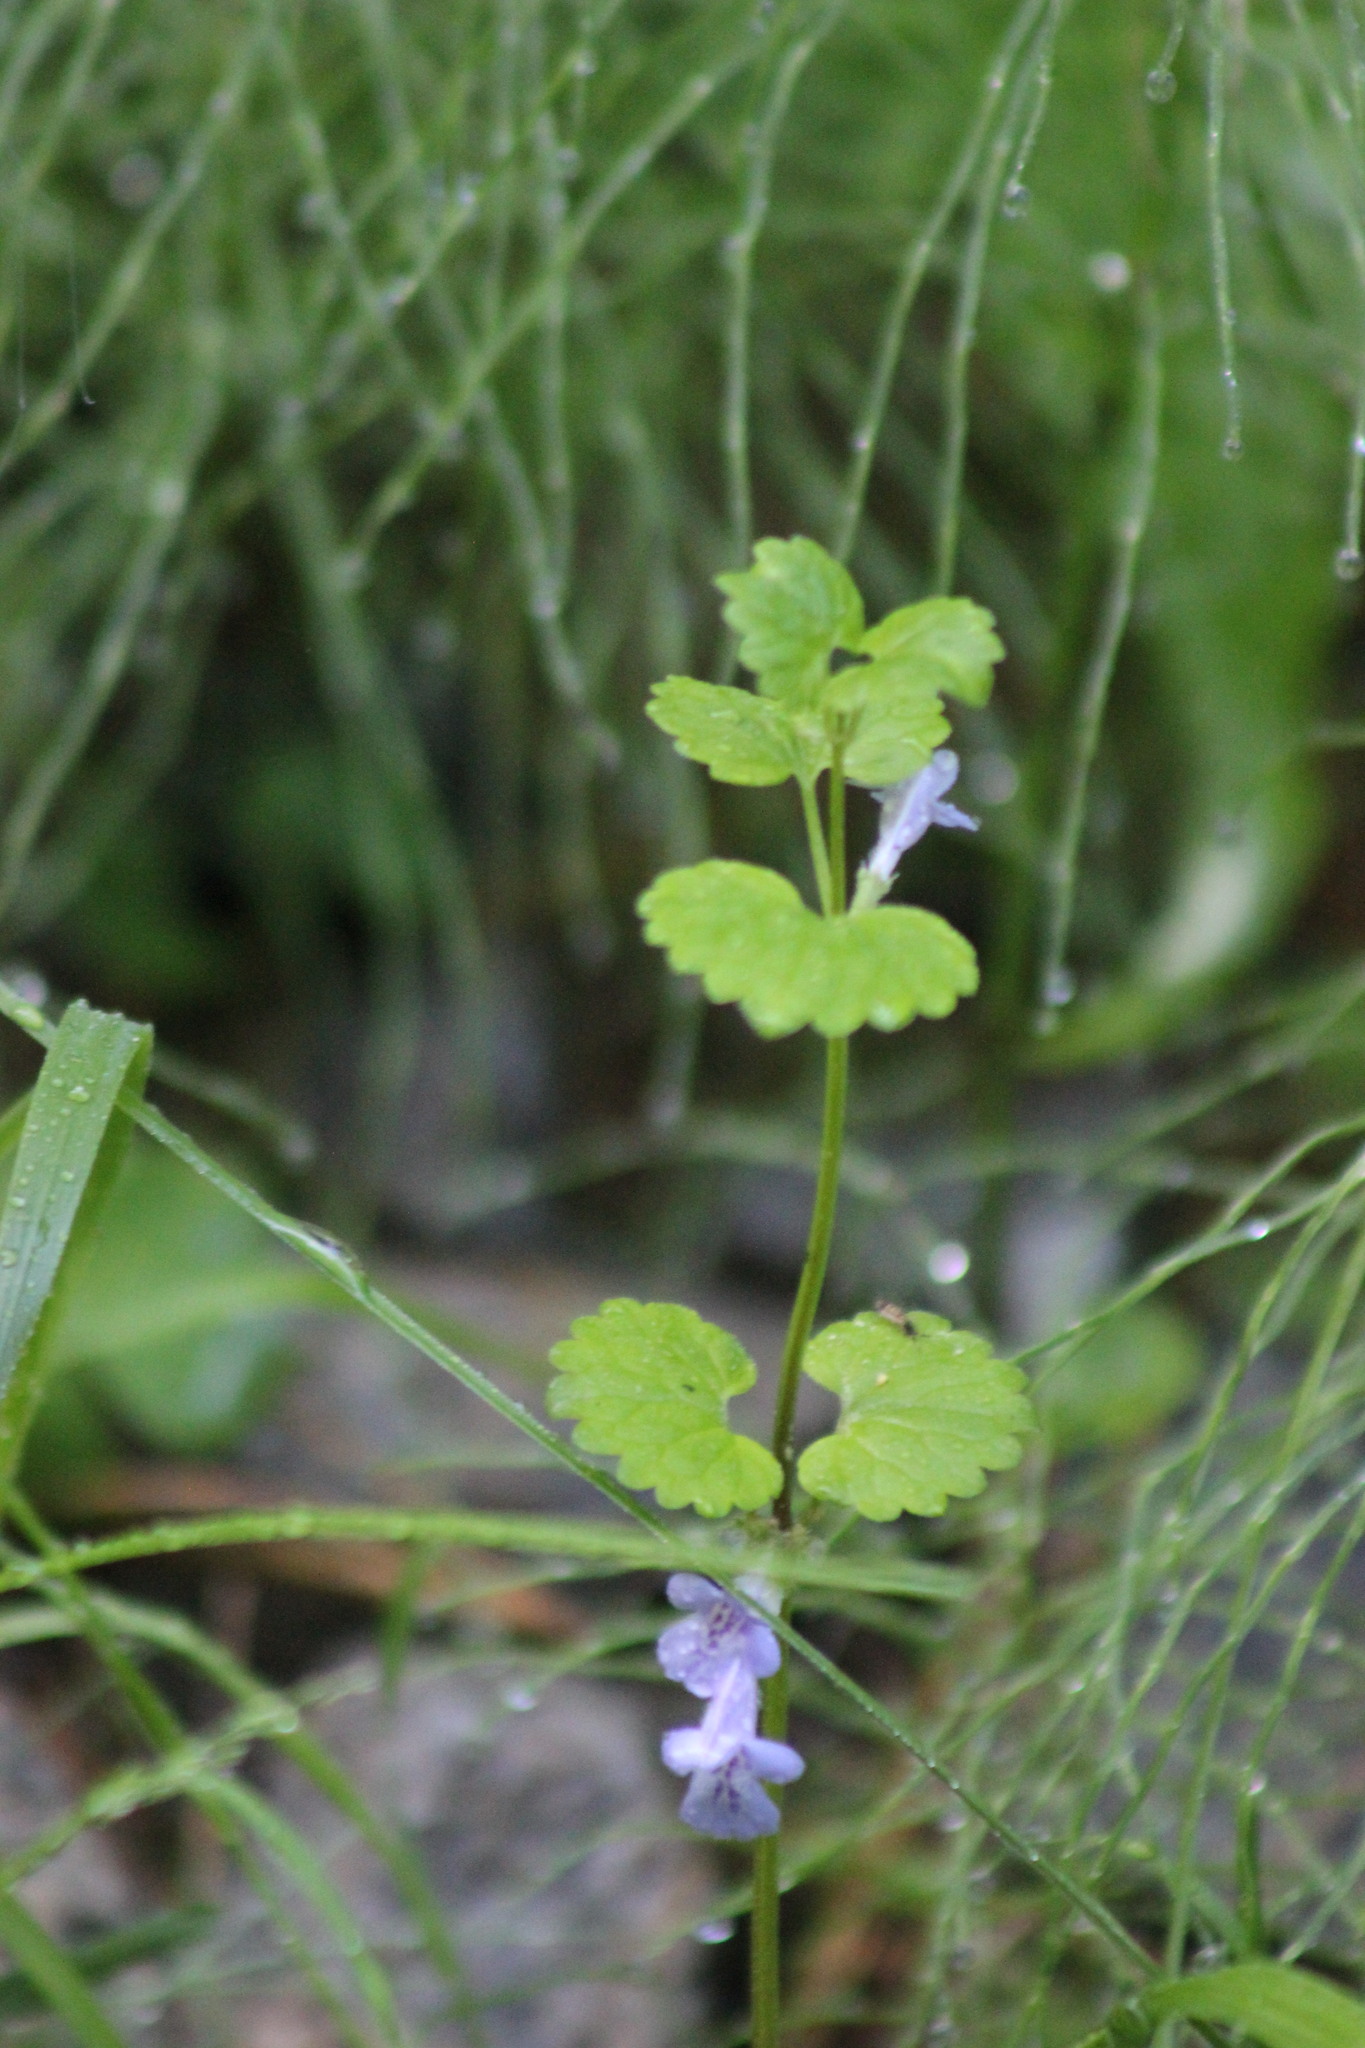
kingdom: Plantae
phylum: Tracheophyta
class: Magnoliopsida
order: Lamiales
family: Lamiaceae
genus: Glechoma
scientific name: Glechoma hederacea
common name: Ground ivy
